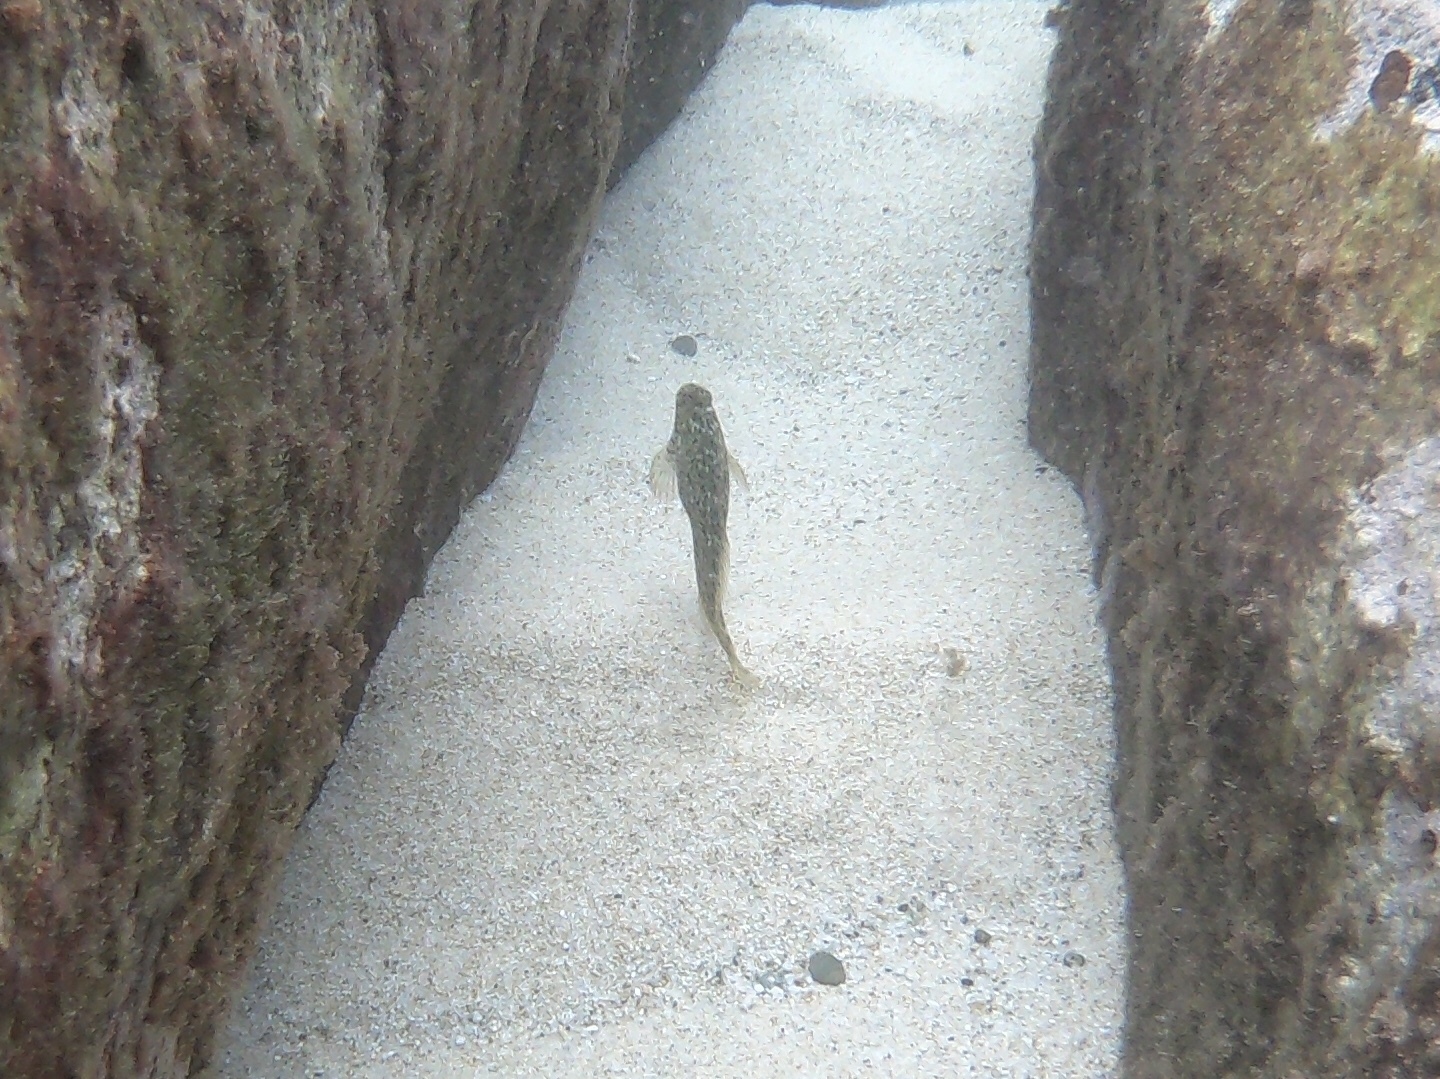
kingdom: Animalia
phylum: Chordata
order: Perciformes
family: Blenniidae
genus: Parablennius
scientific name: Parablennius sanguinolentus
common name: Black sea blenny
